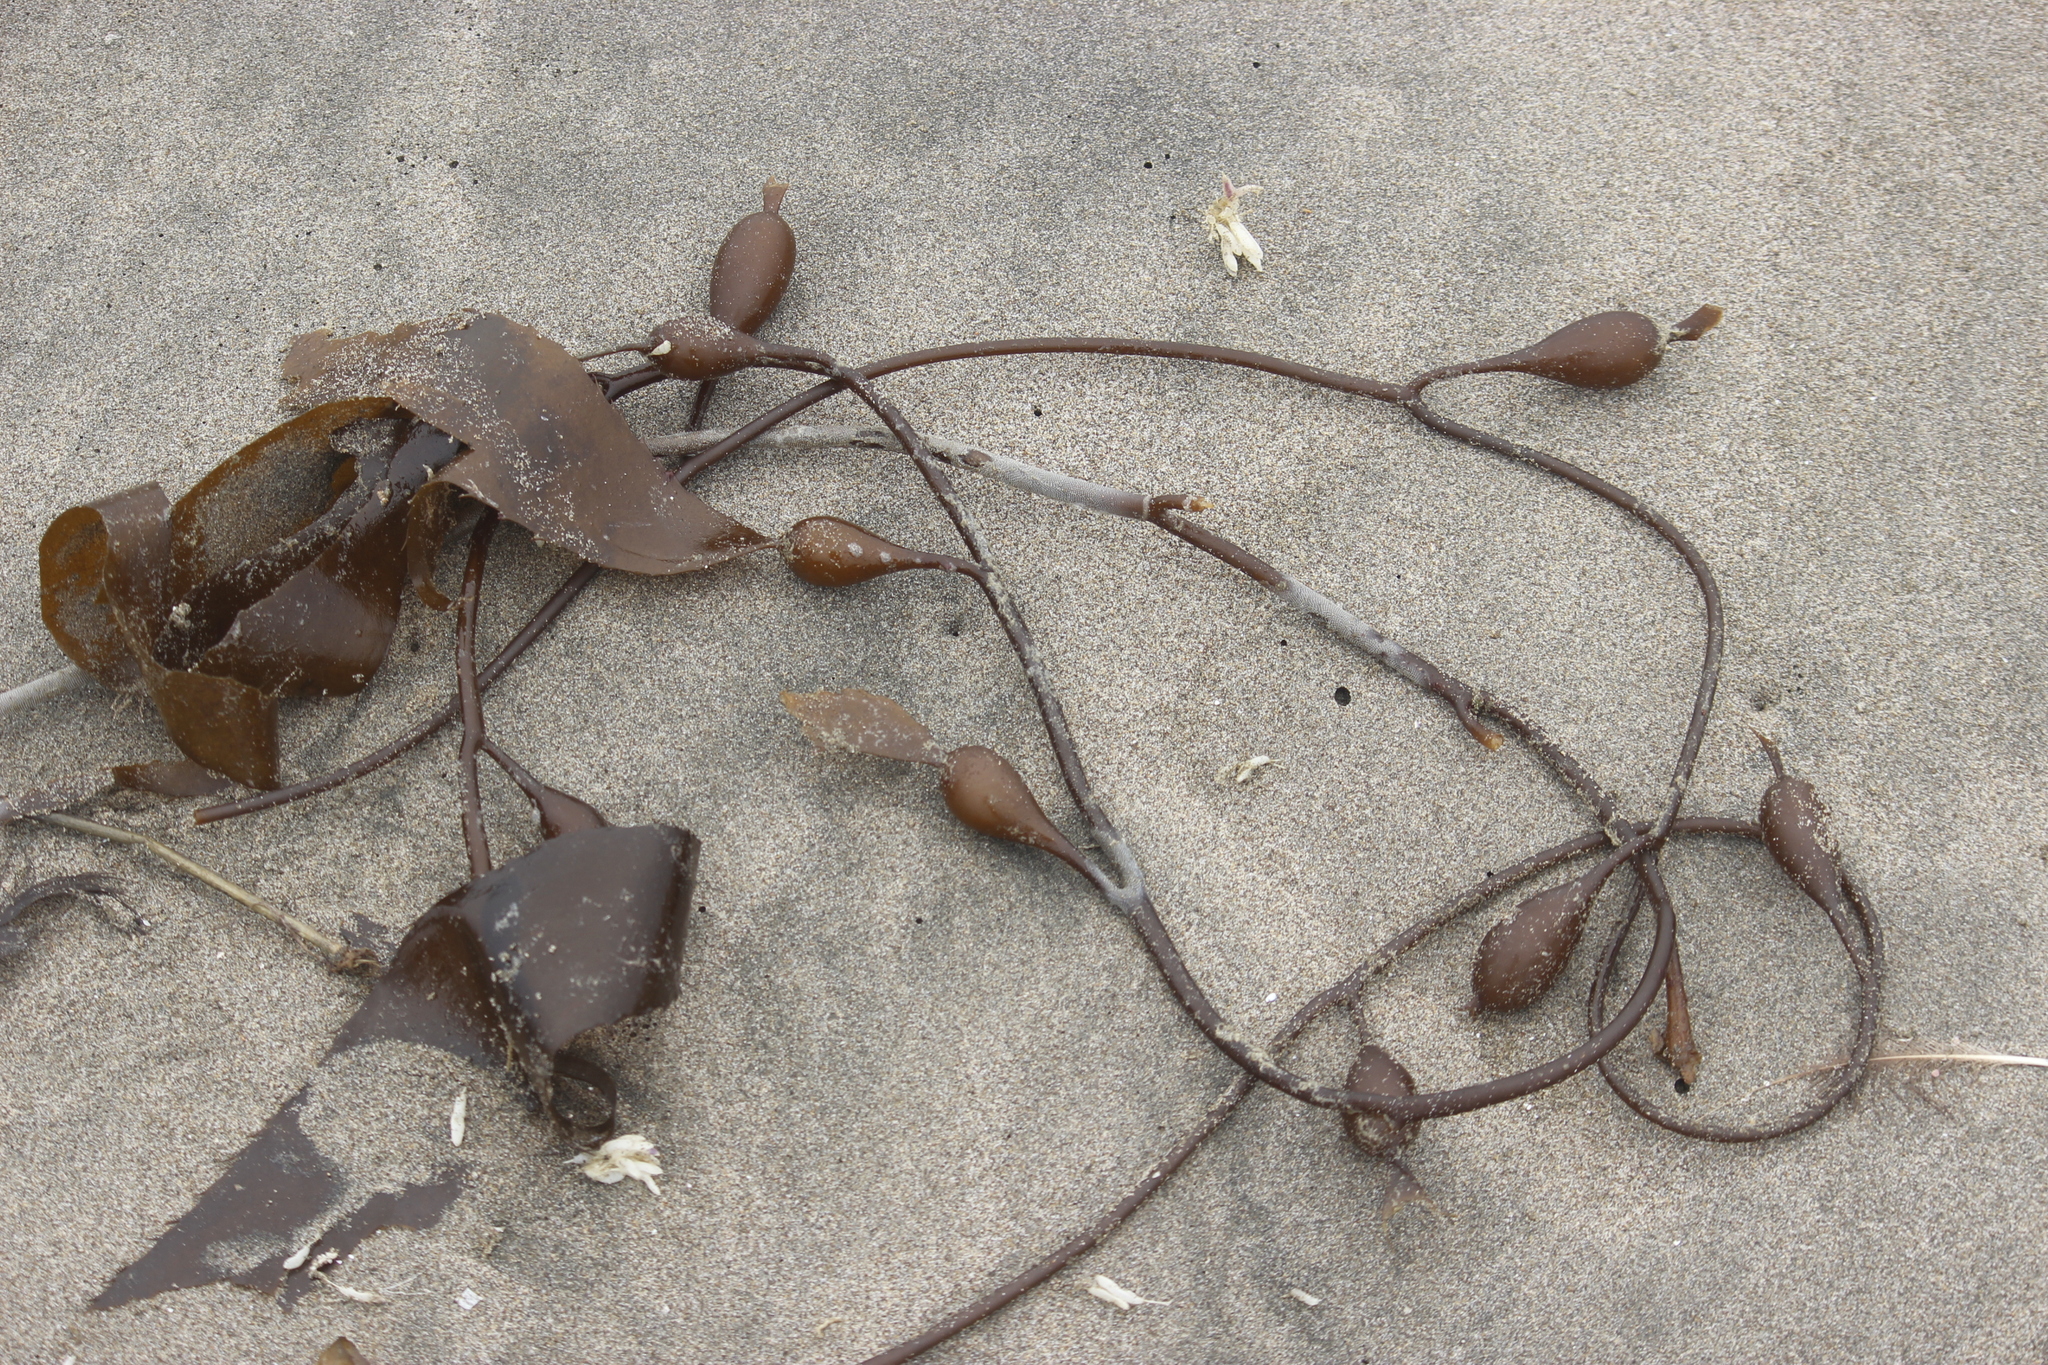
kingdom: Chromista
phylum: Ochrophyta
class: Phaeophyceae
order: Laminariales
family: Laminariaceae
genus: Macrocystis
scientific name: Macrocystis pyrifera
